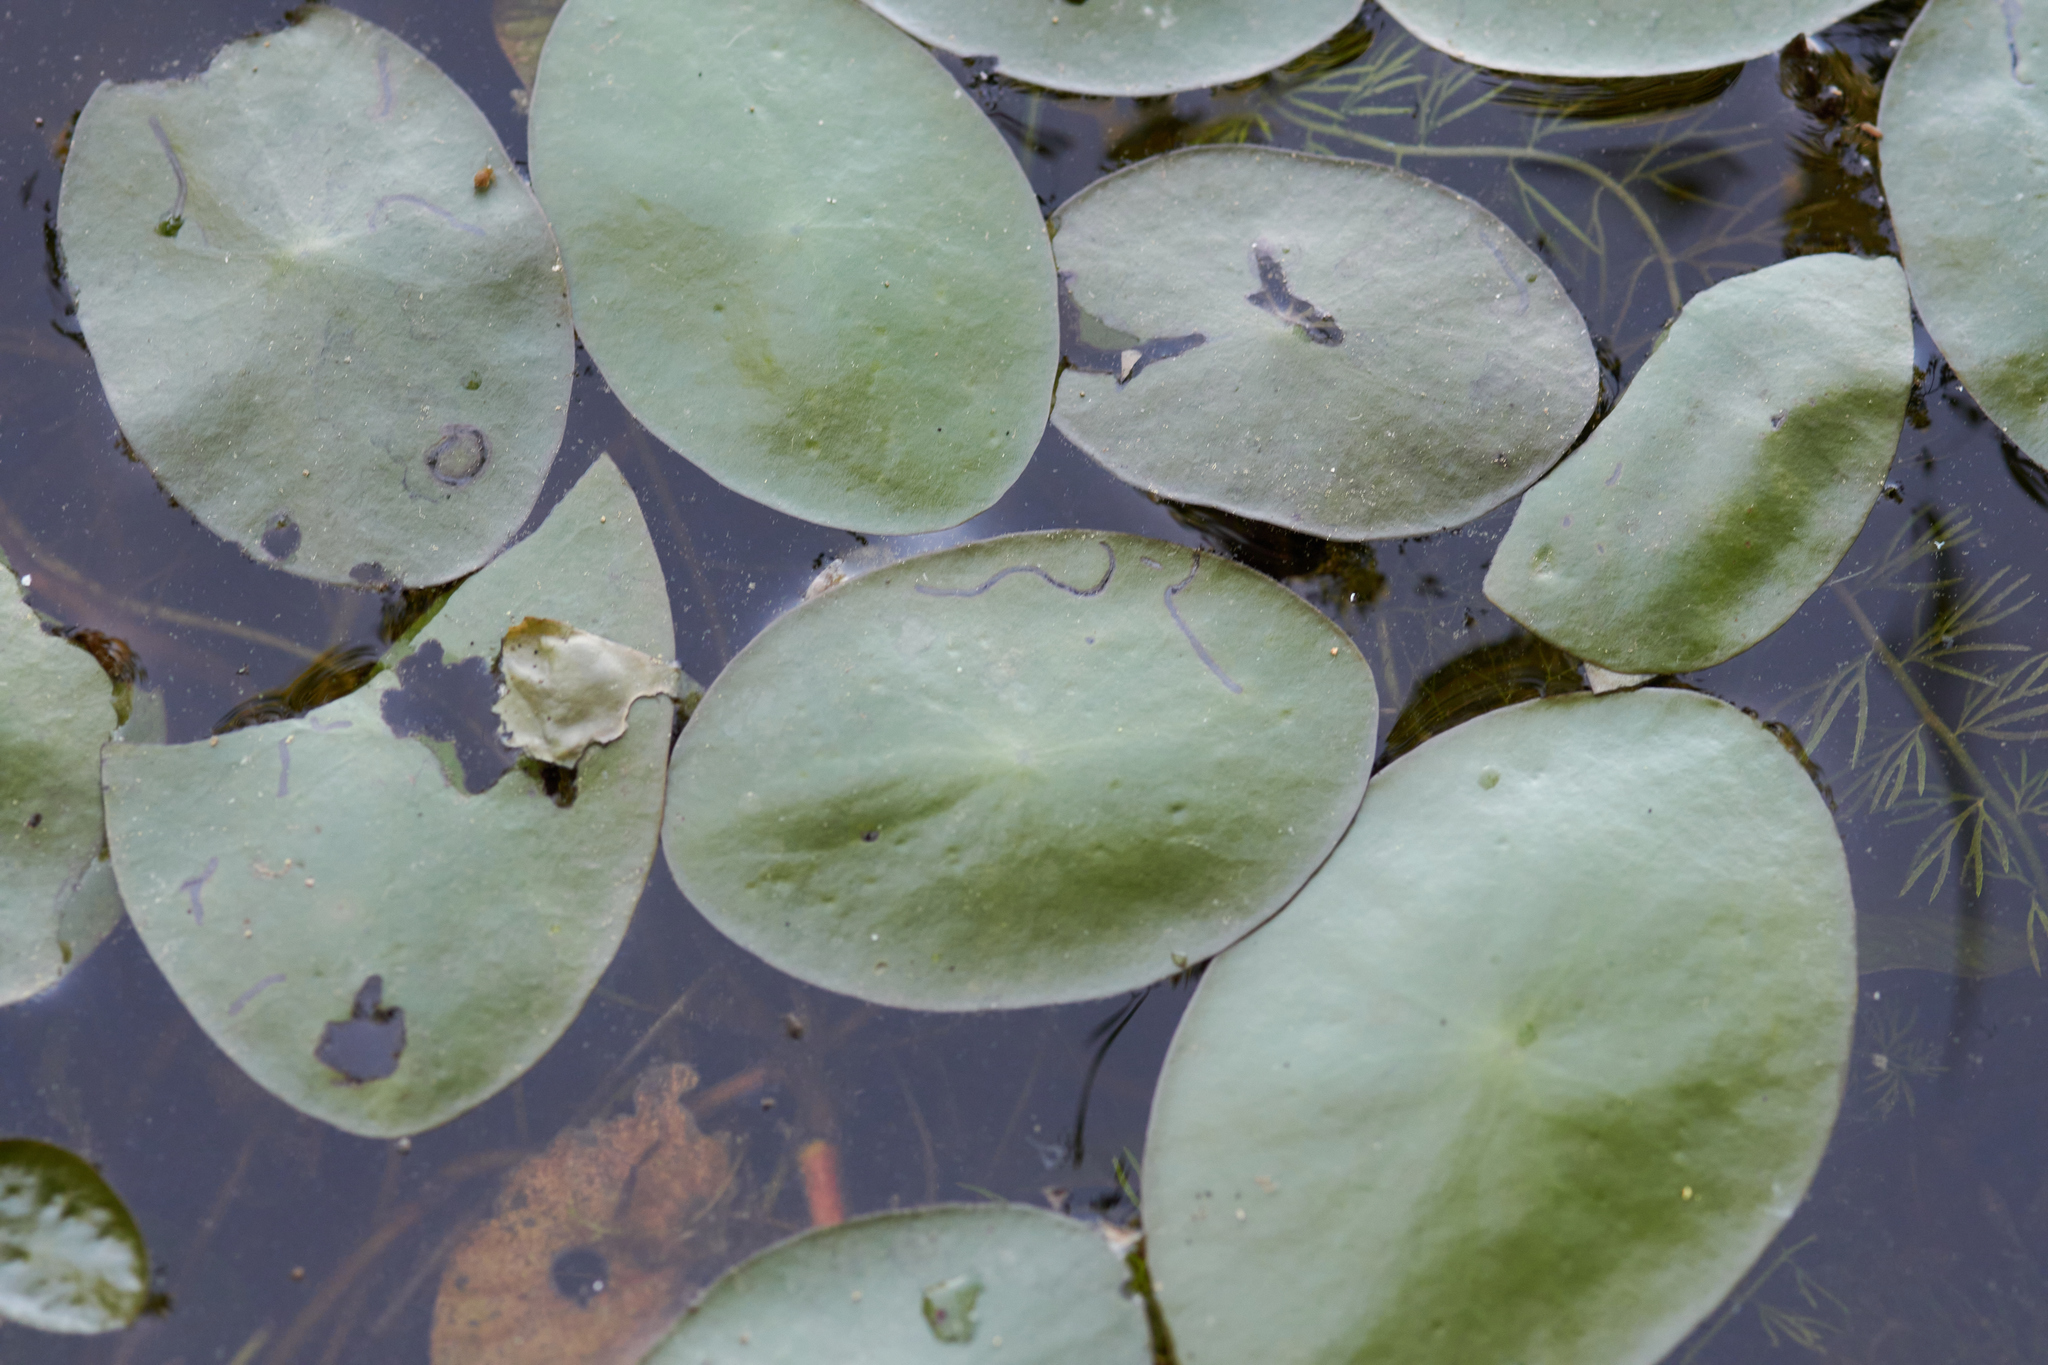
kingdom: Plantae
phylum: Tracheophyta
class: Magnoliopsida
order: Nymphaeales
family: Cabombaceae
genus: Brasenia
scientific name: Brasenia schreberi
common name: Water-shield
